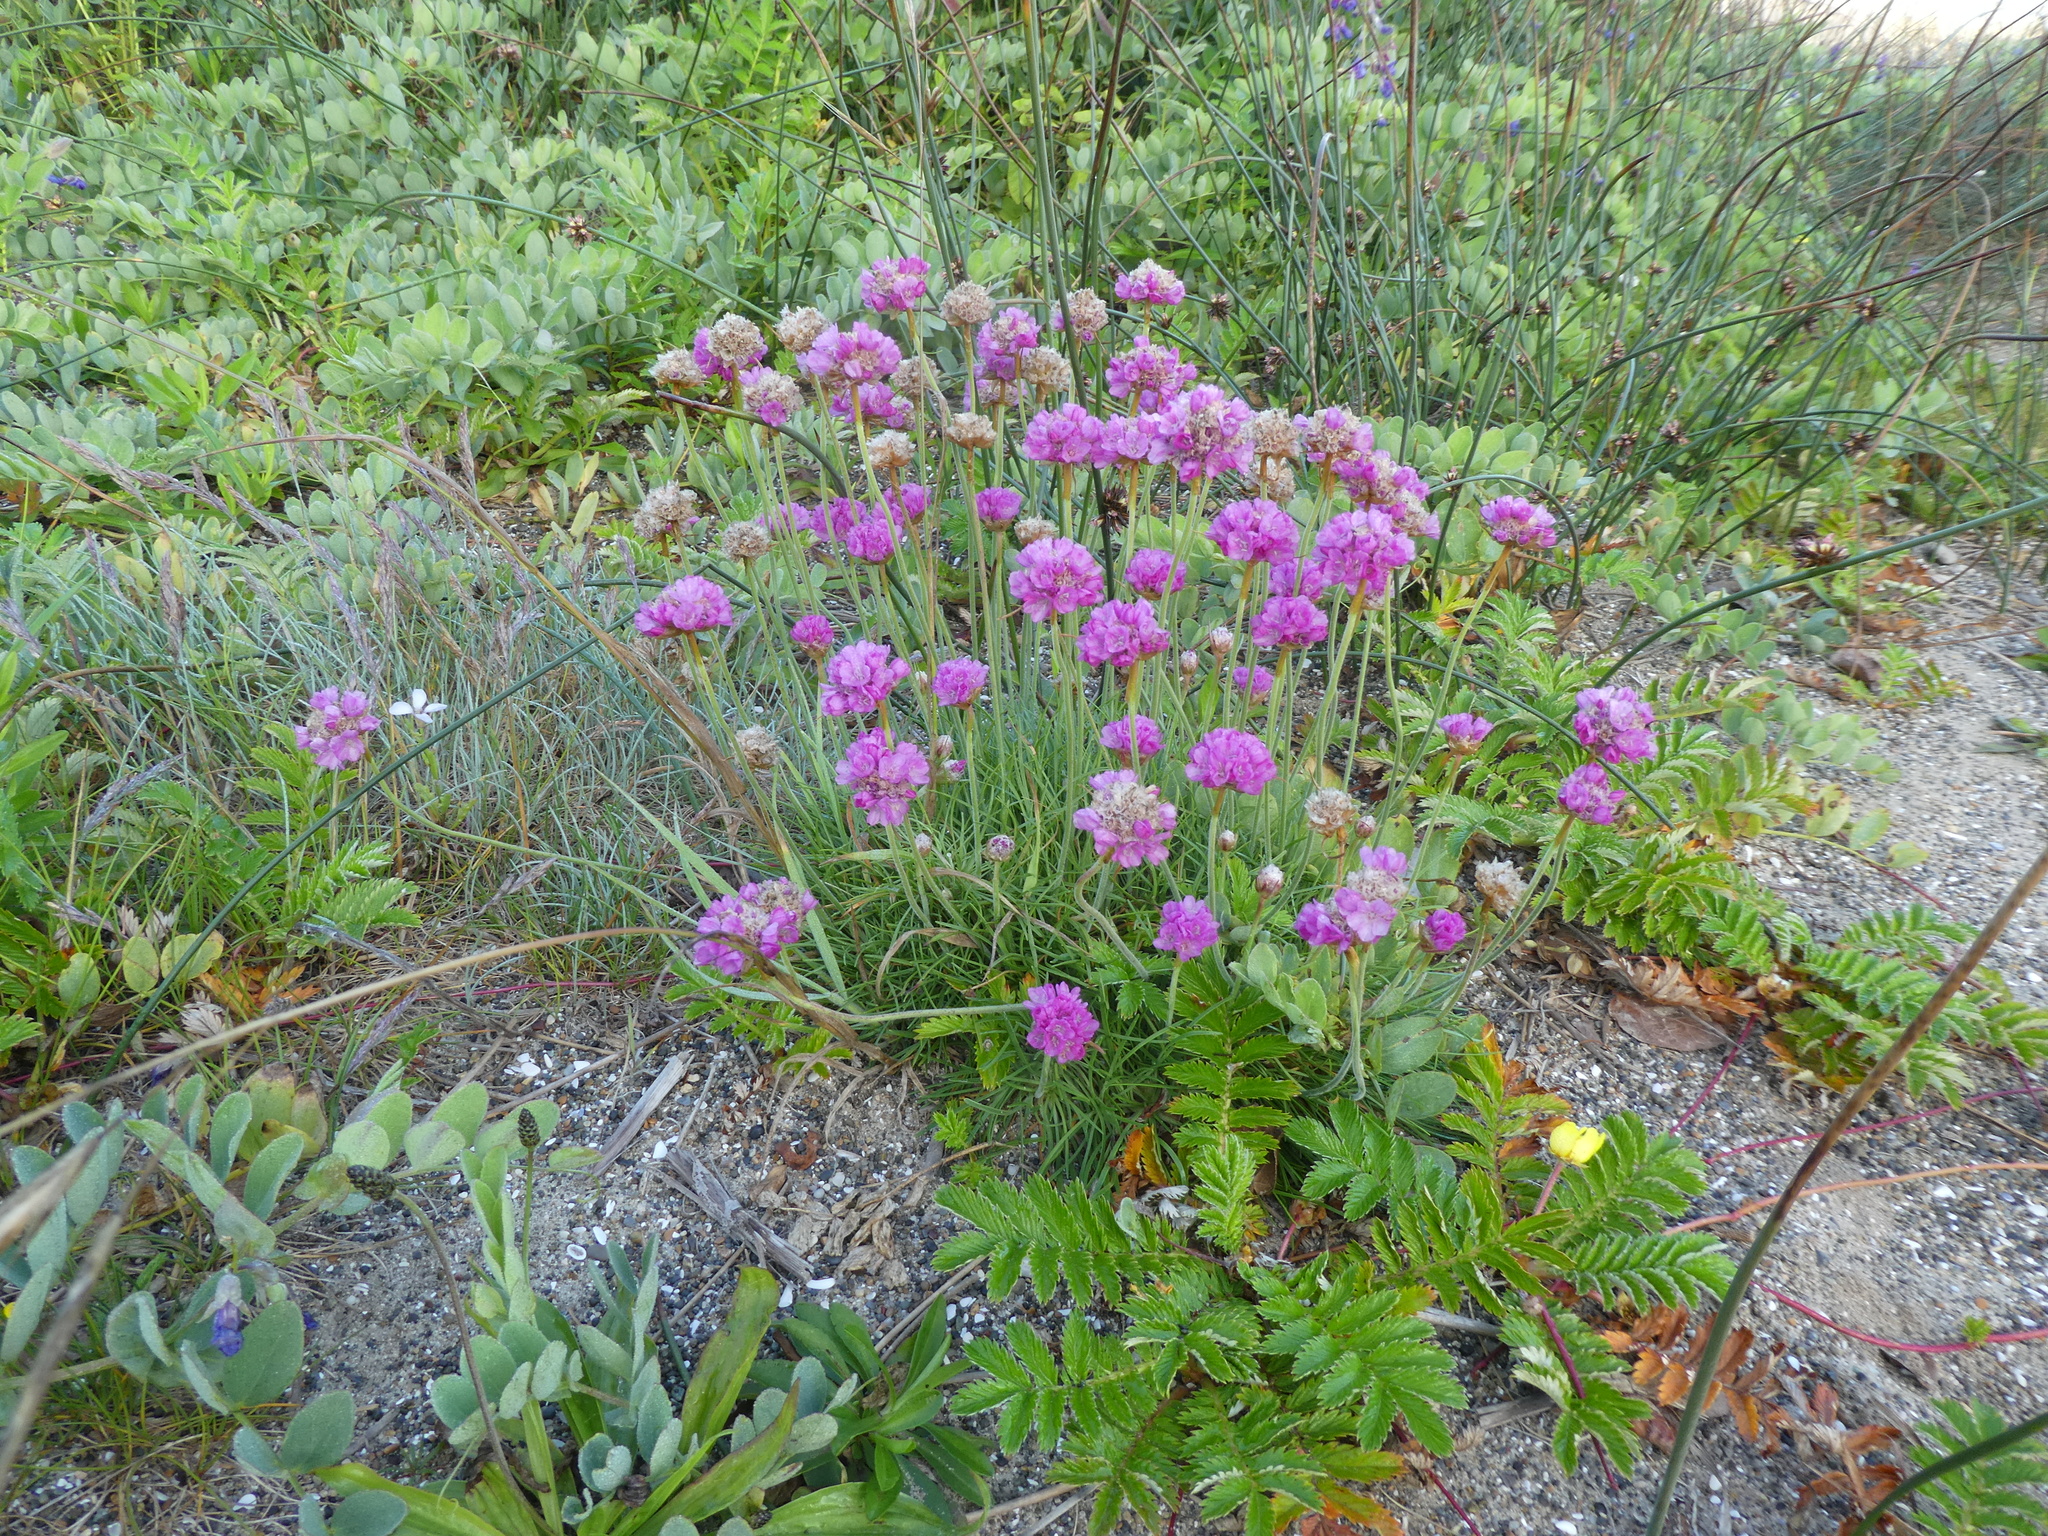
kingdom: Plantae
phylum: Tracheophyta
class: Magnoliopsida
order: Caryophyllales
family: Plumbaginaceae
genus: Armeria
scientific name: Armeria maritima
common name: Thrift
